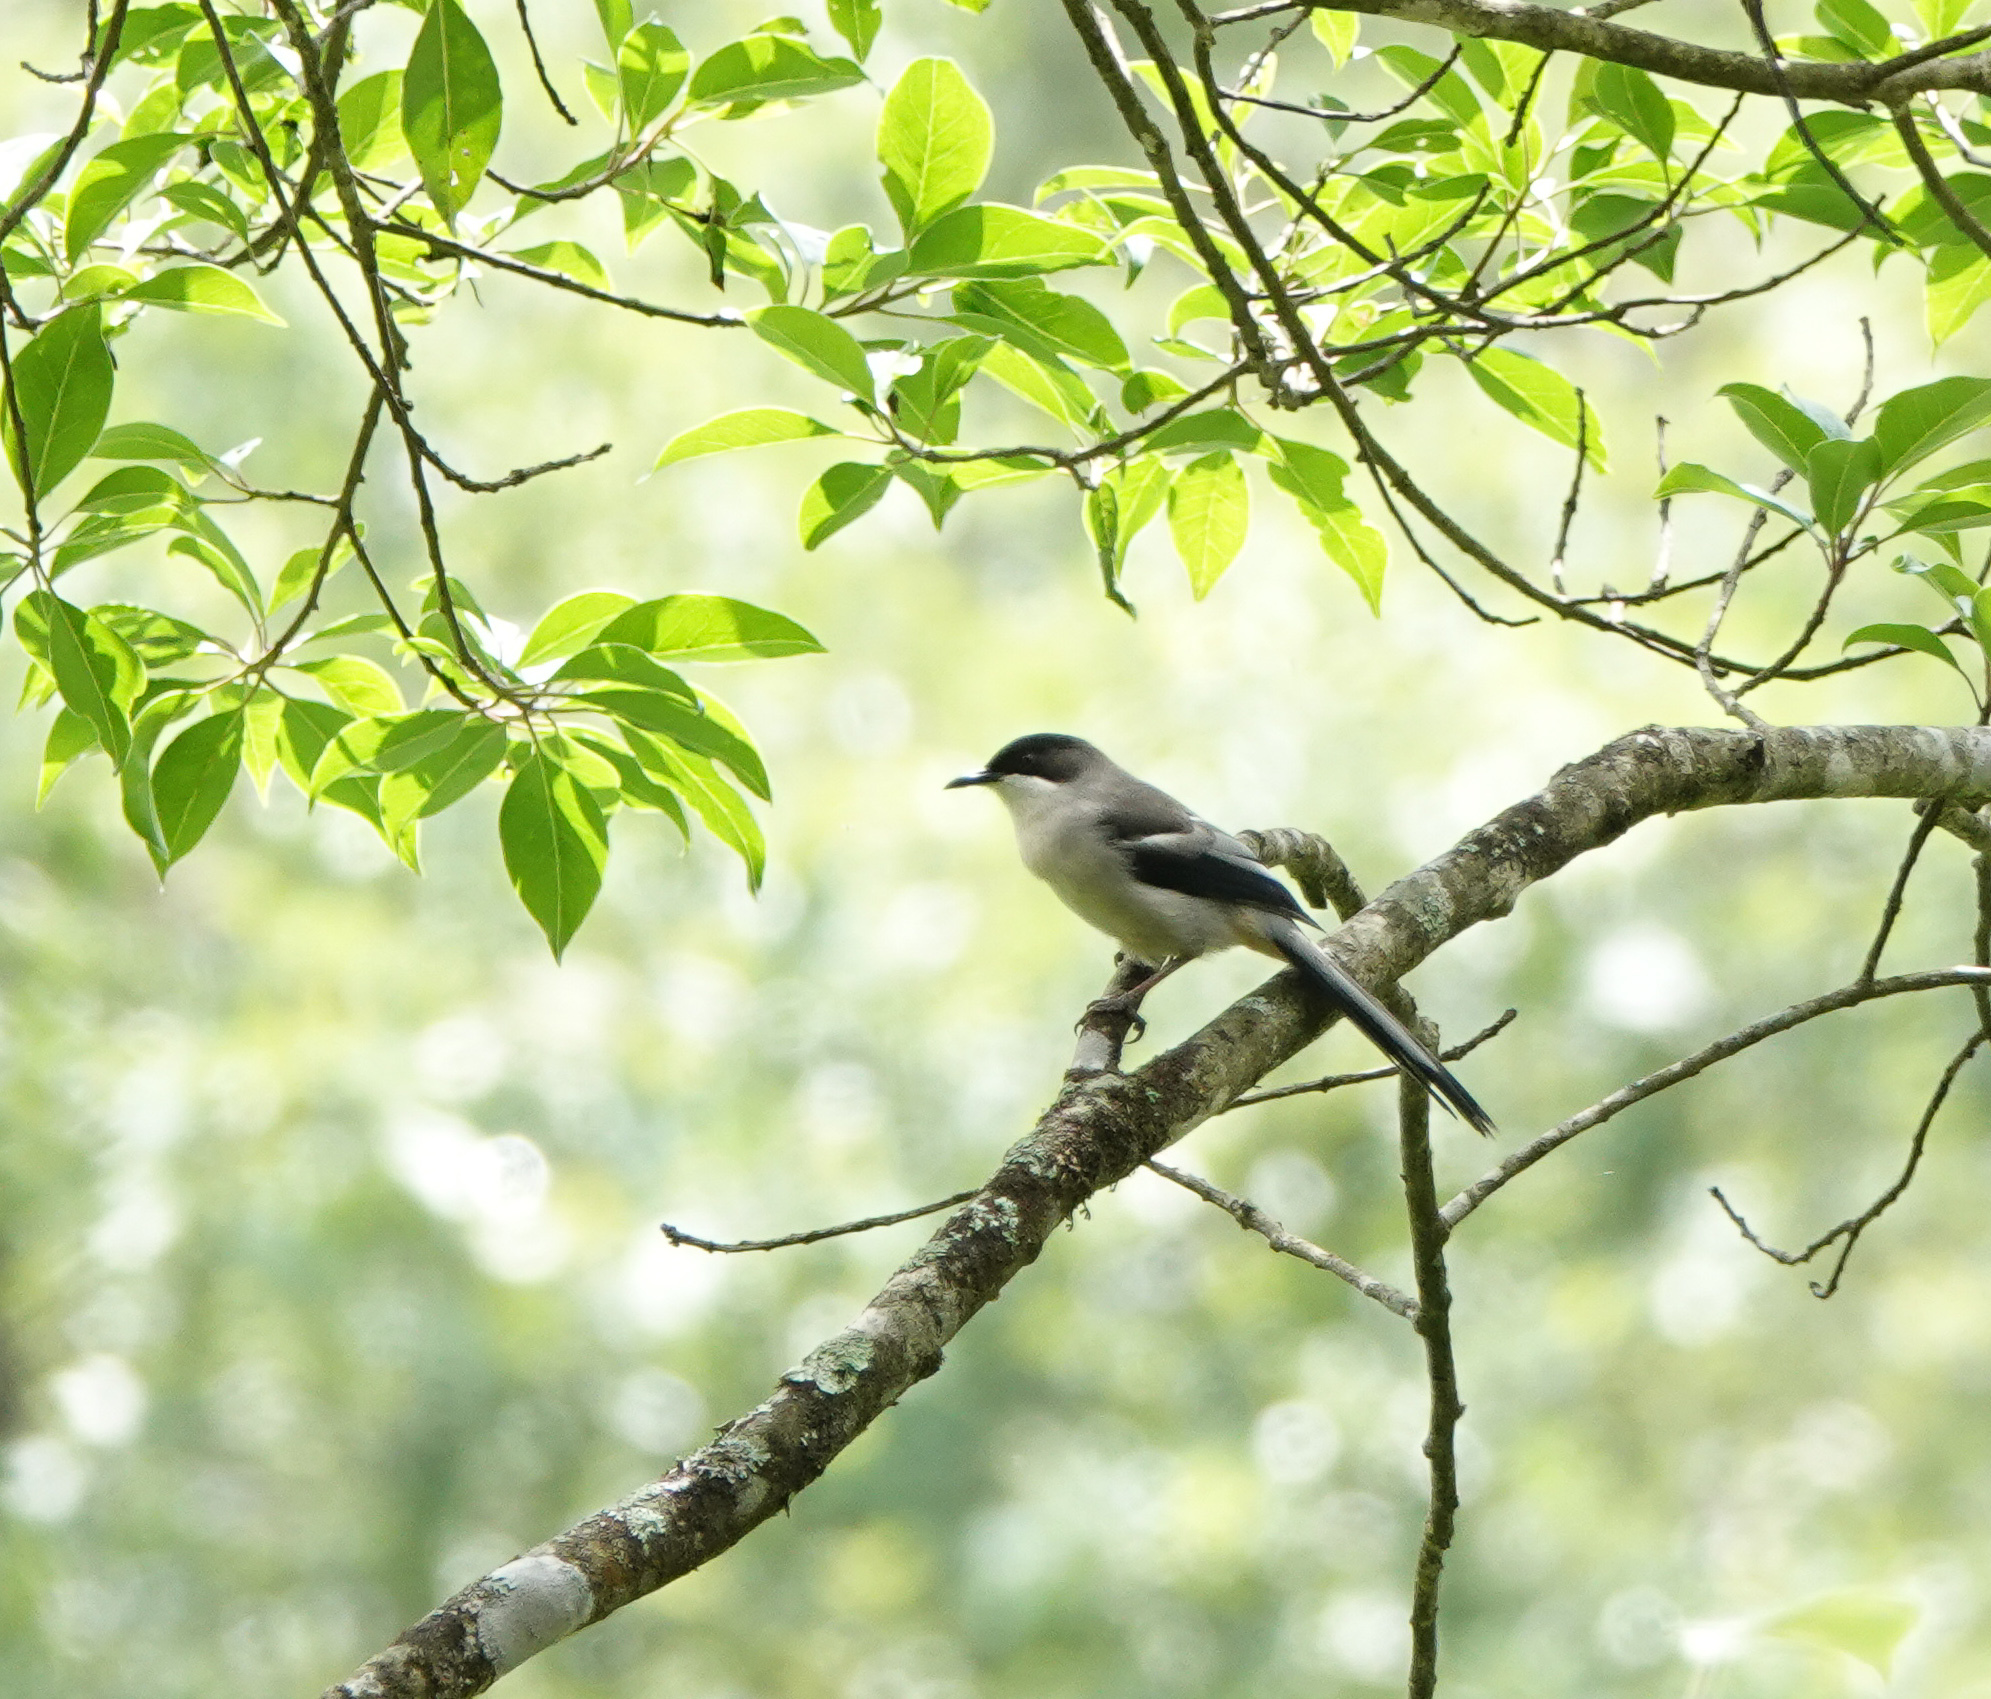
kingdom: Animalia
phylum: Chordata
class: Aves
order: Passeriformes
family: Leiothrichidae
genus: Heterophasia
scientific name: Heterophasia gracilis
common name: Grey sibia
